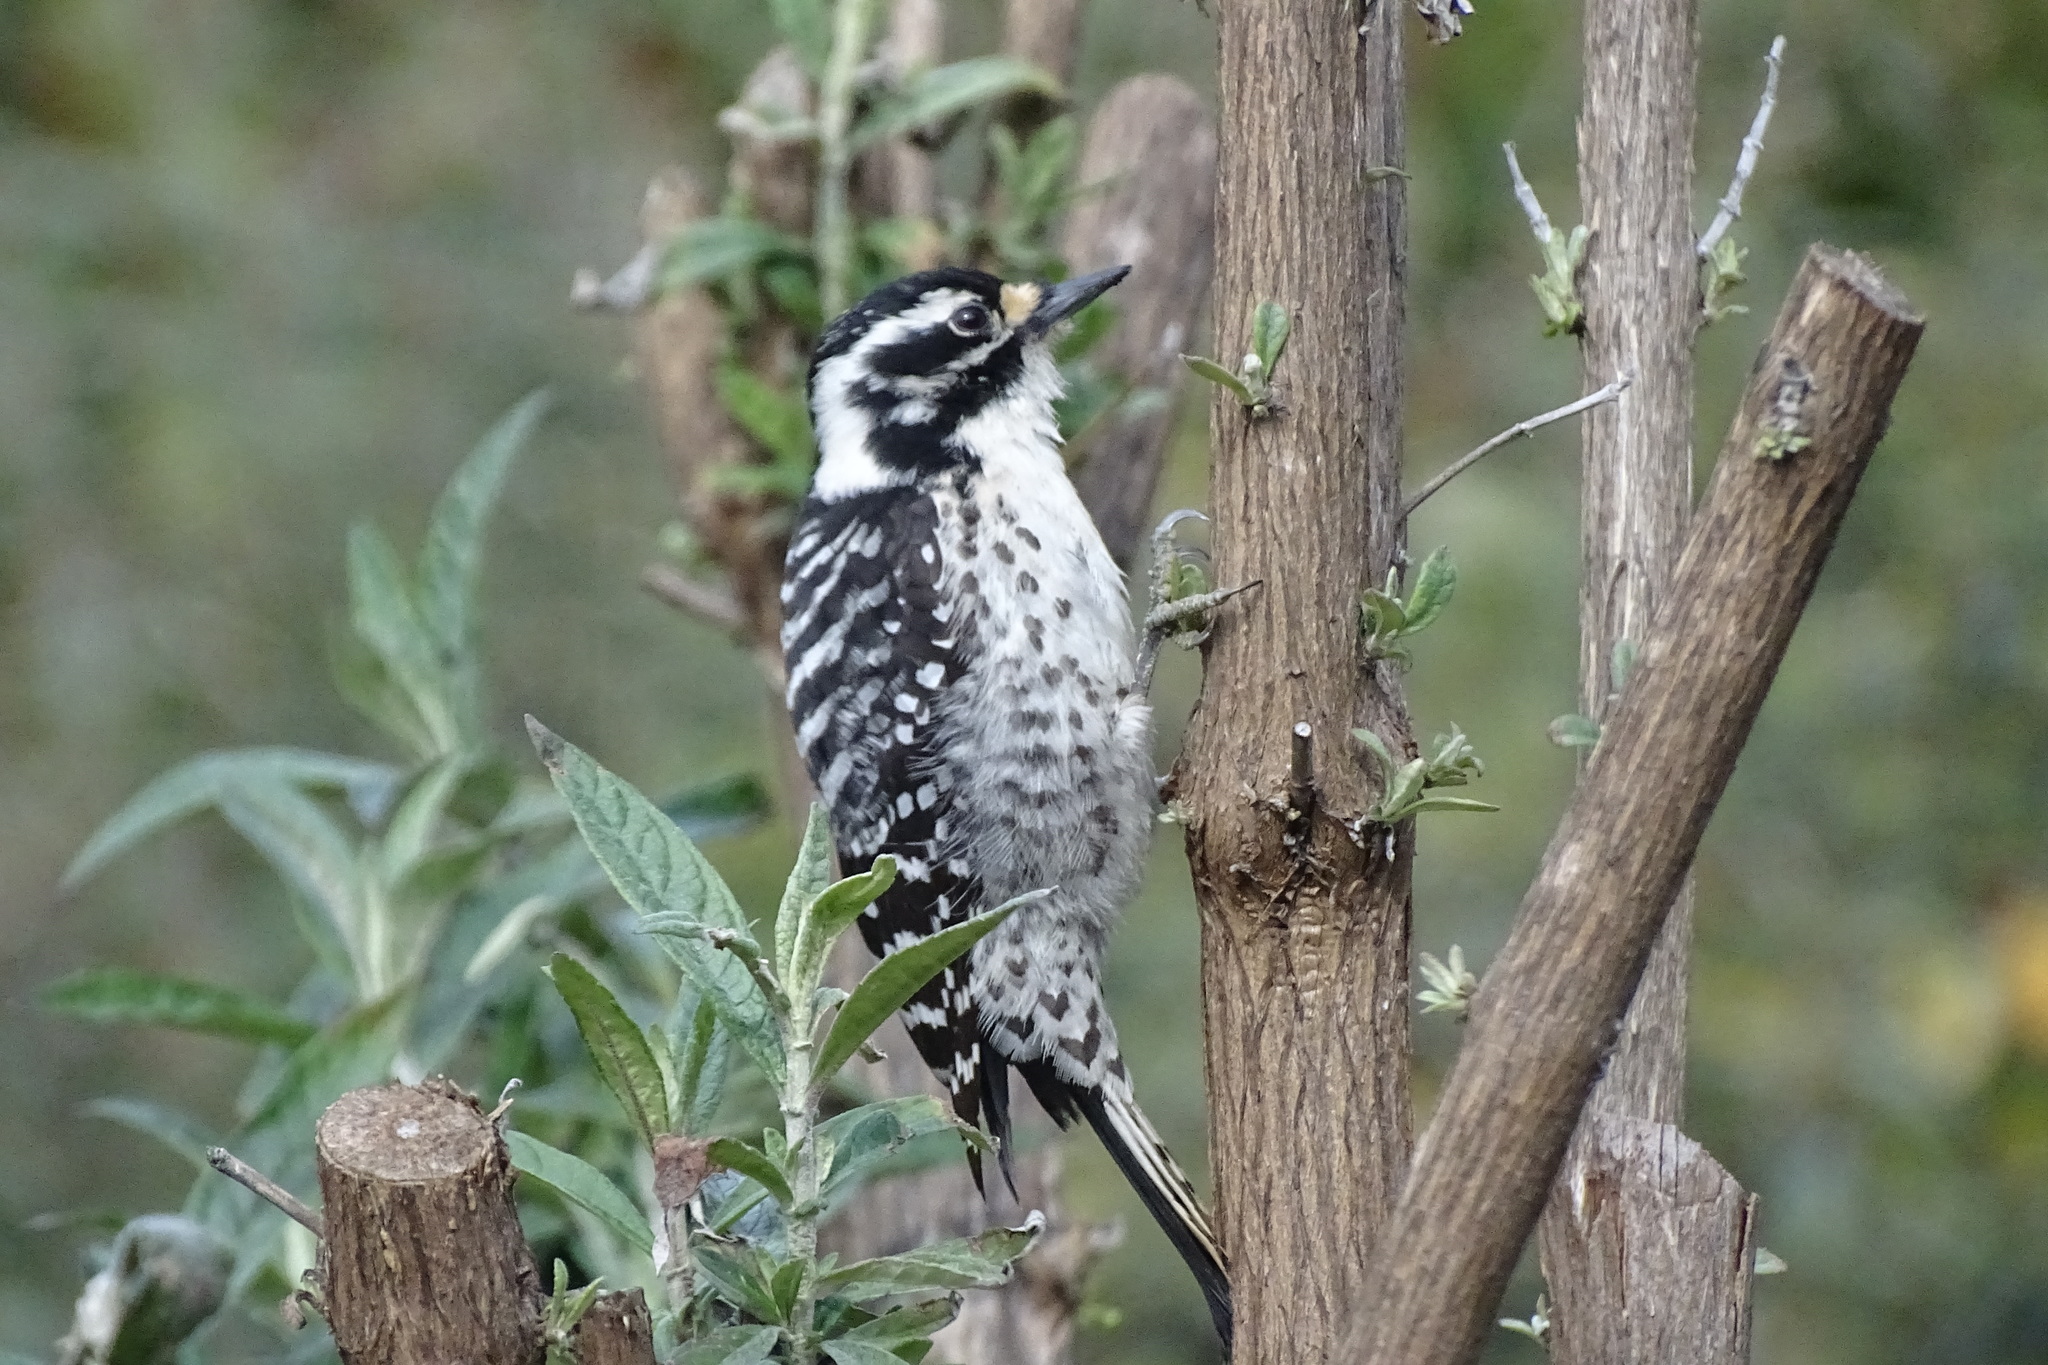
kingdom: Animalia
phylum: Chordata
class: Aves
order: Piciformes
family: Picidae
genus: Dryobates
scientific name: Dryobates nuttallii
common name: Nuttall's woodpecker
